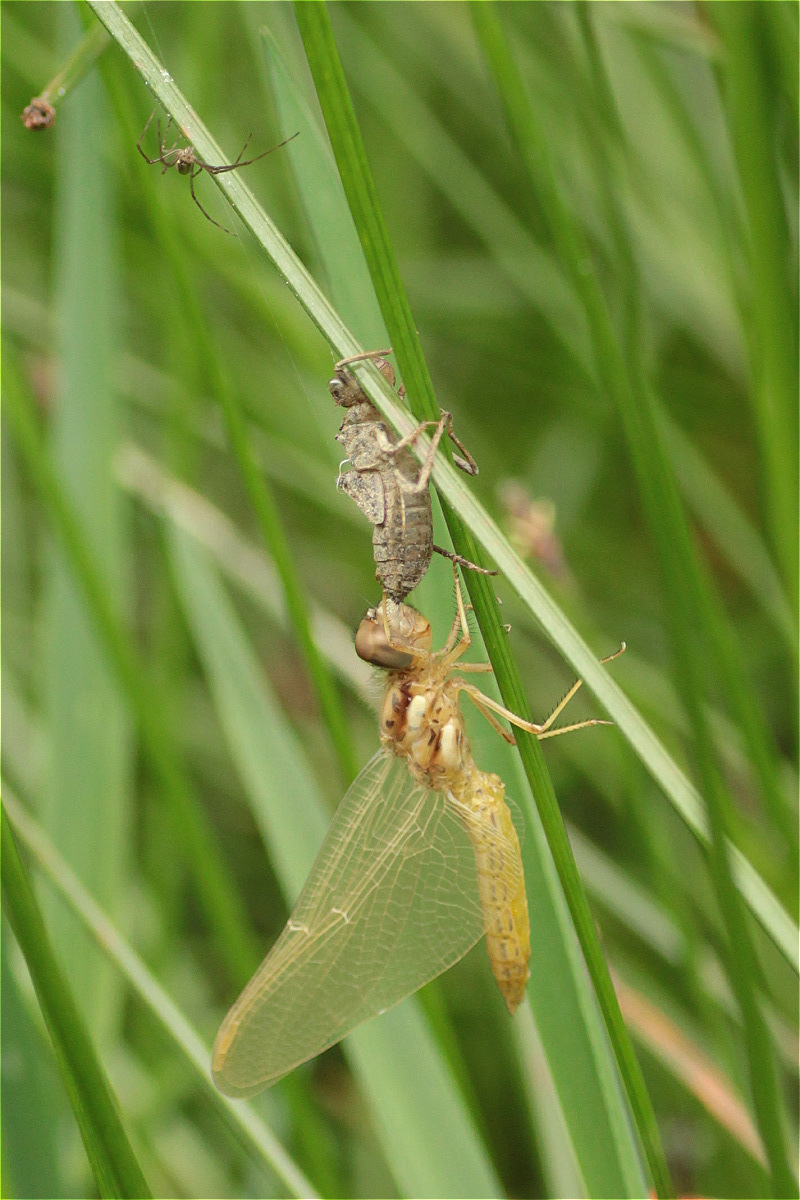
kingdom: Animalia
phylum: Arthropoda
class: Insecta
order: Odonata
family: Libellulidae
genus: Sympetrum
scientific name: Sympetrum gilvum
